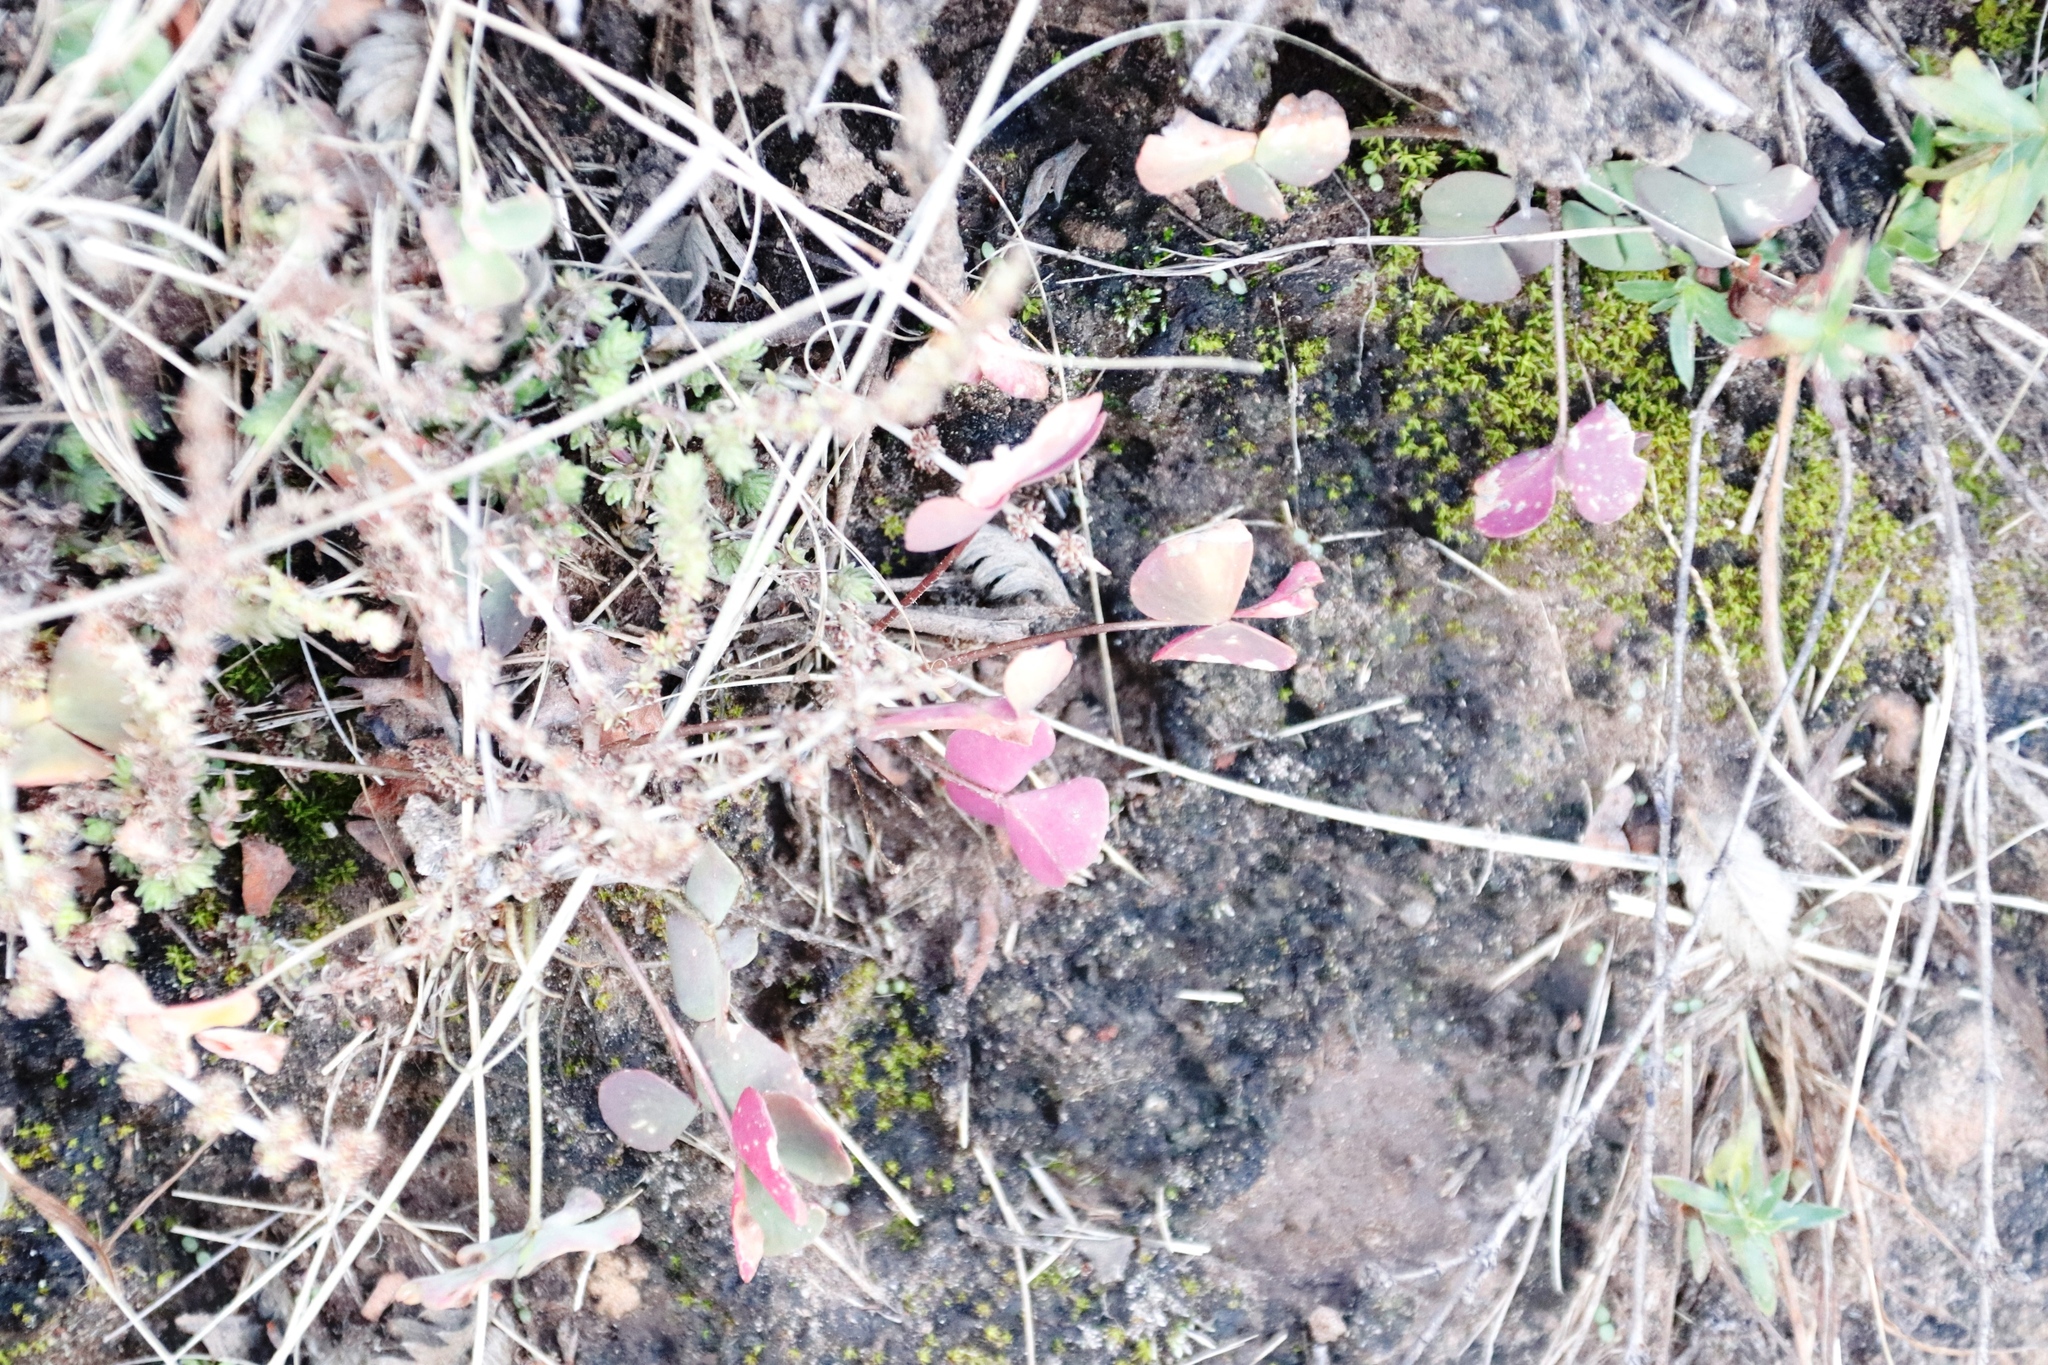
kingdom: Plantae
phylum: Tracheophyta
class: Magnoliopsida
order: Oxalidales
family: Oxalidaceae
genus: Oxalis
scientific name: Oxalis obliquifolia
